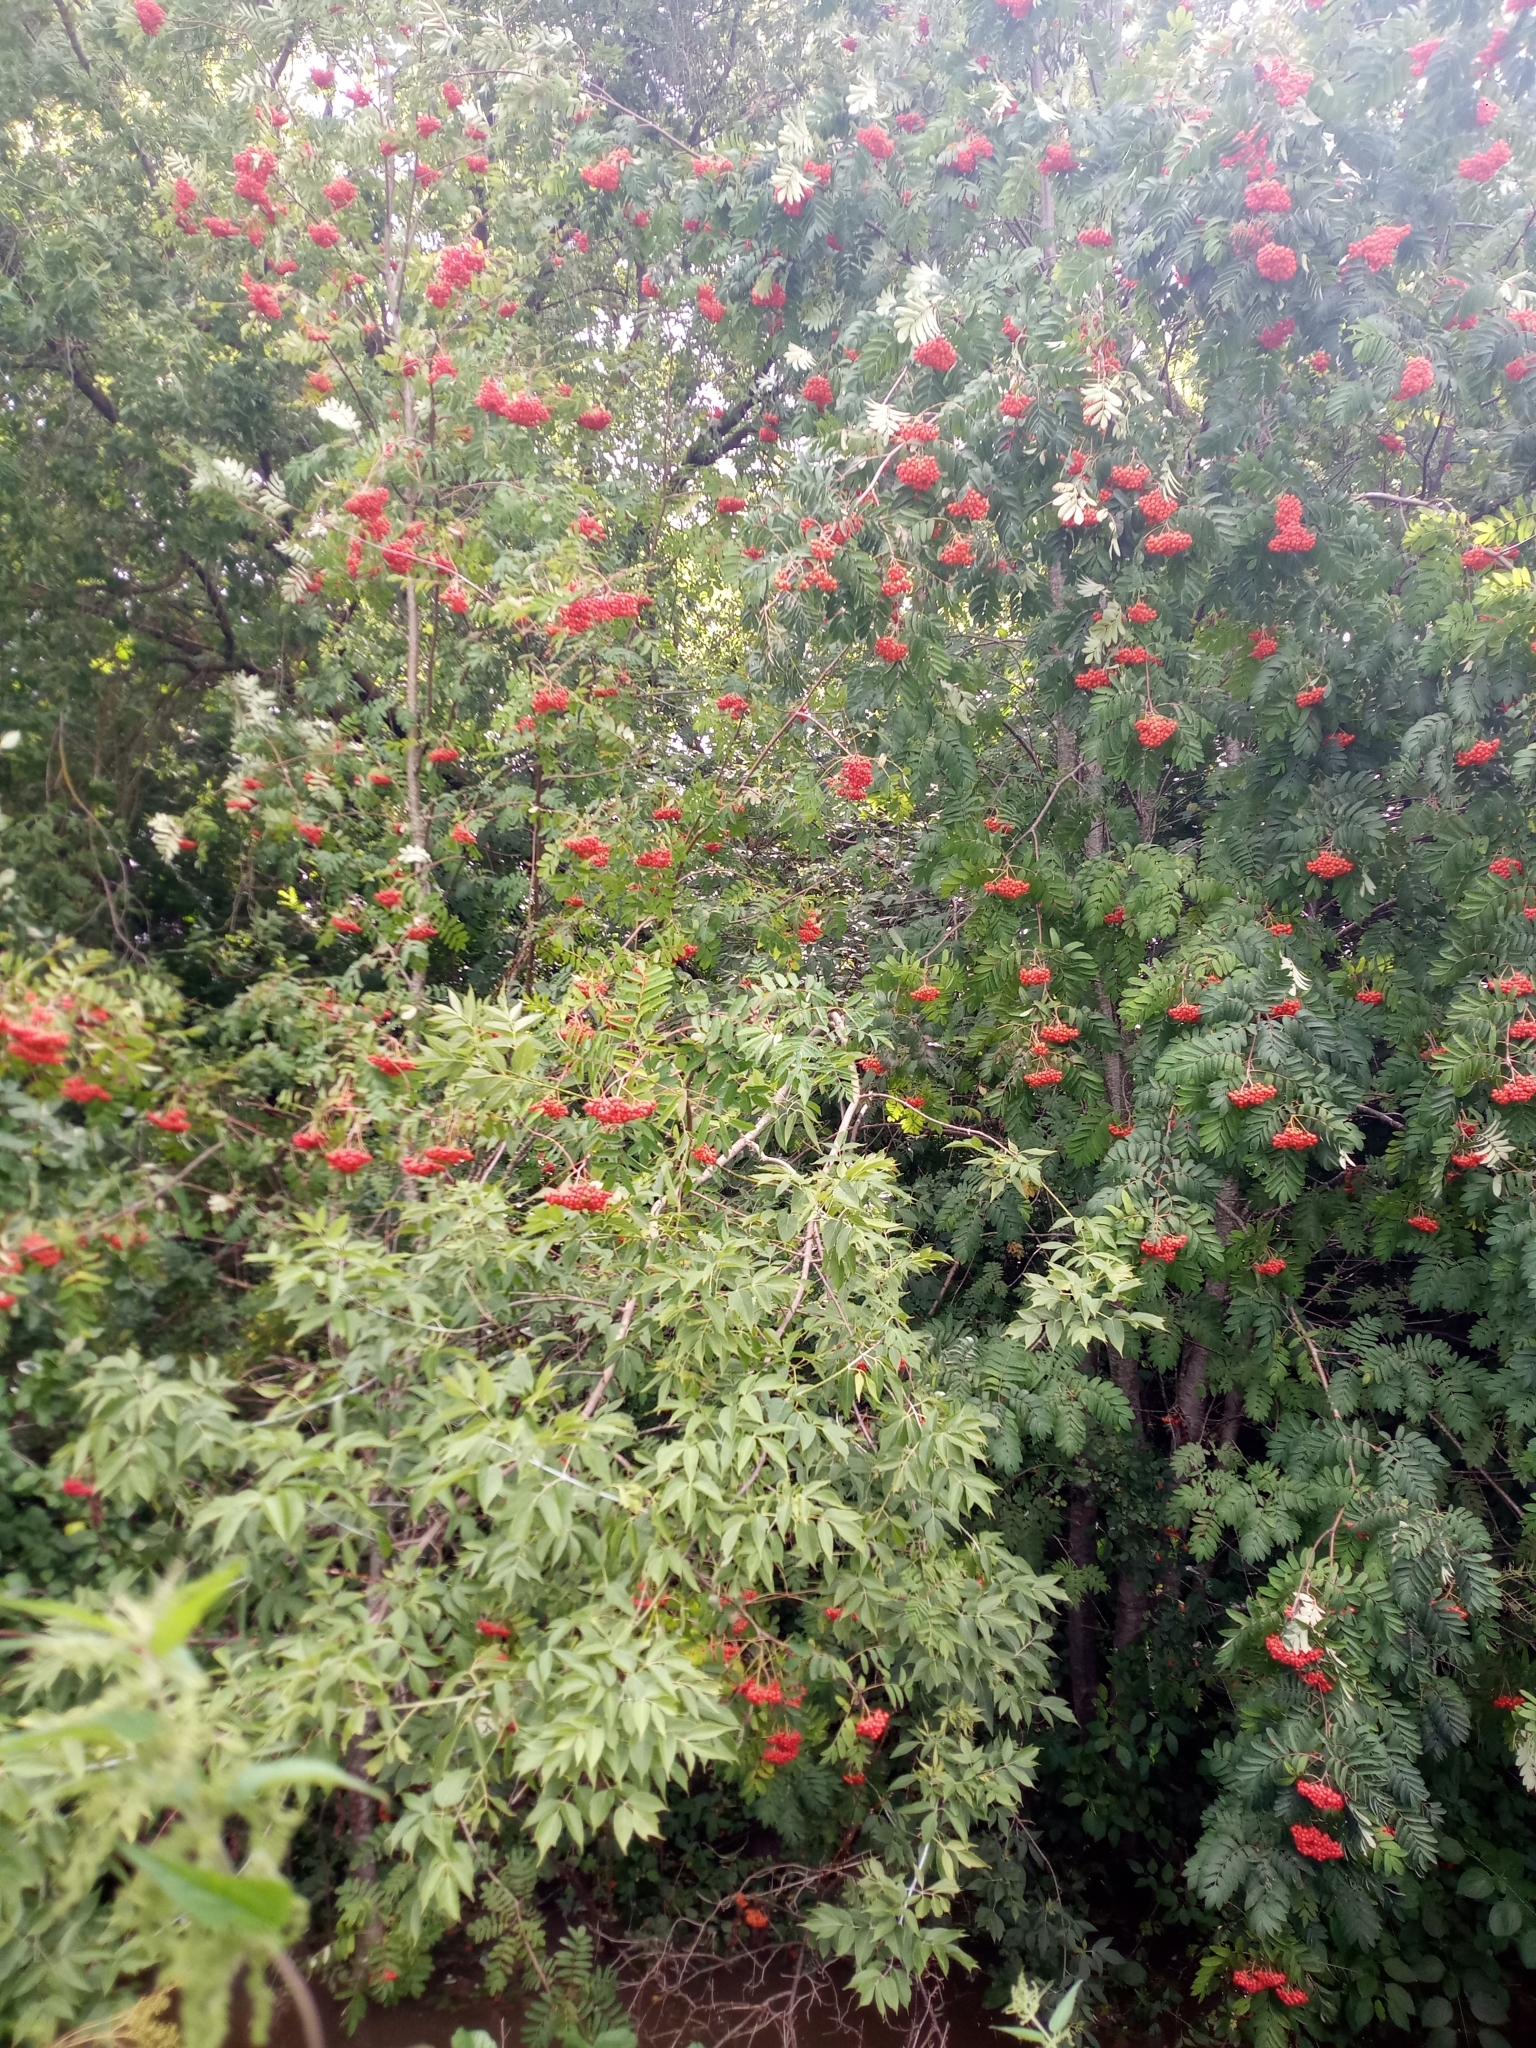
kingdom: Plantae
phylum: Tracheophyta
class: Magnoliopsida
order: Rosales
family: Rosaceae
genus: Sorbus
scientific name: Sorbus aucuparia
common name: Rowan
